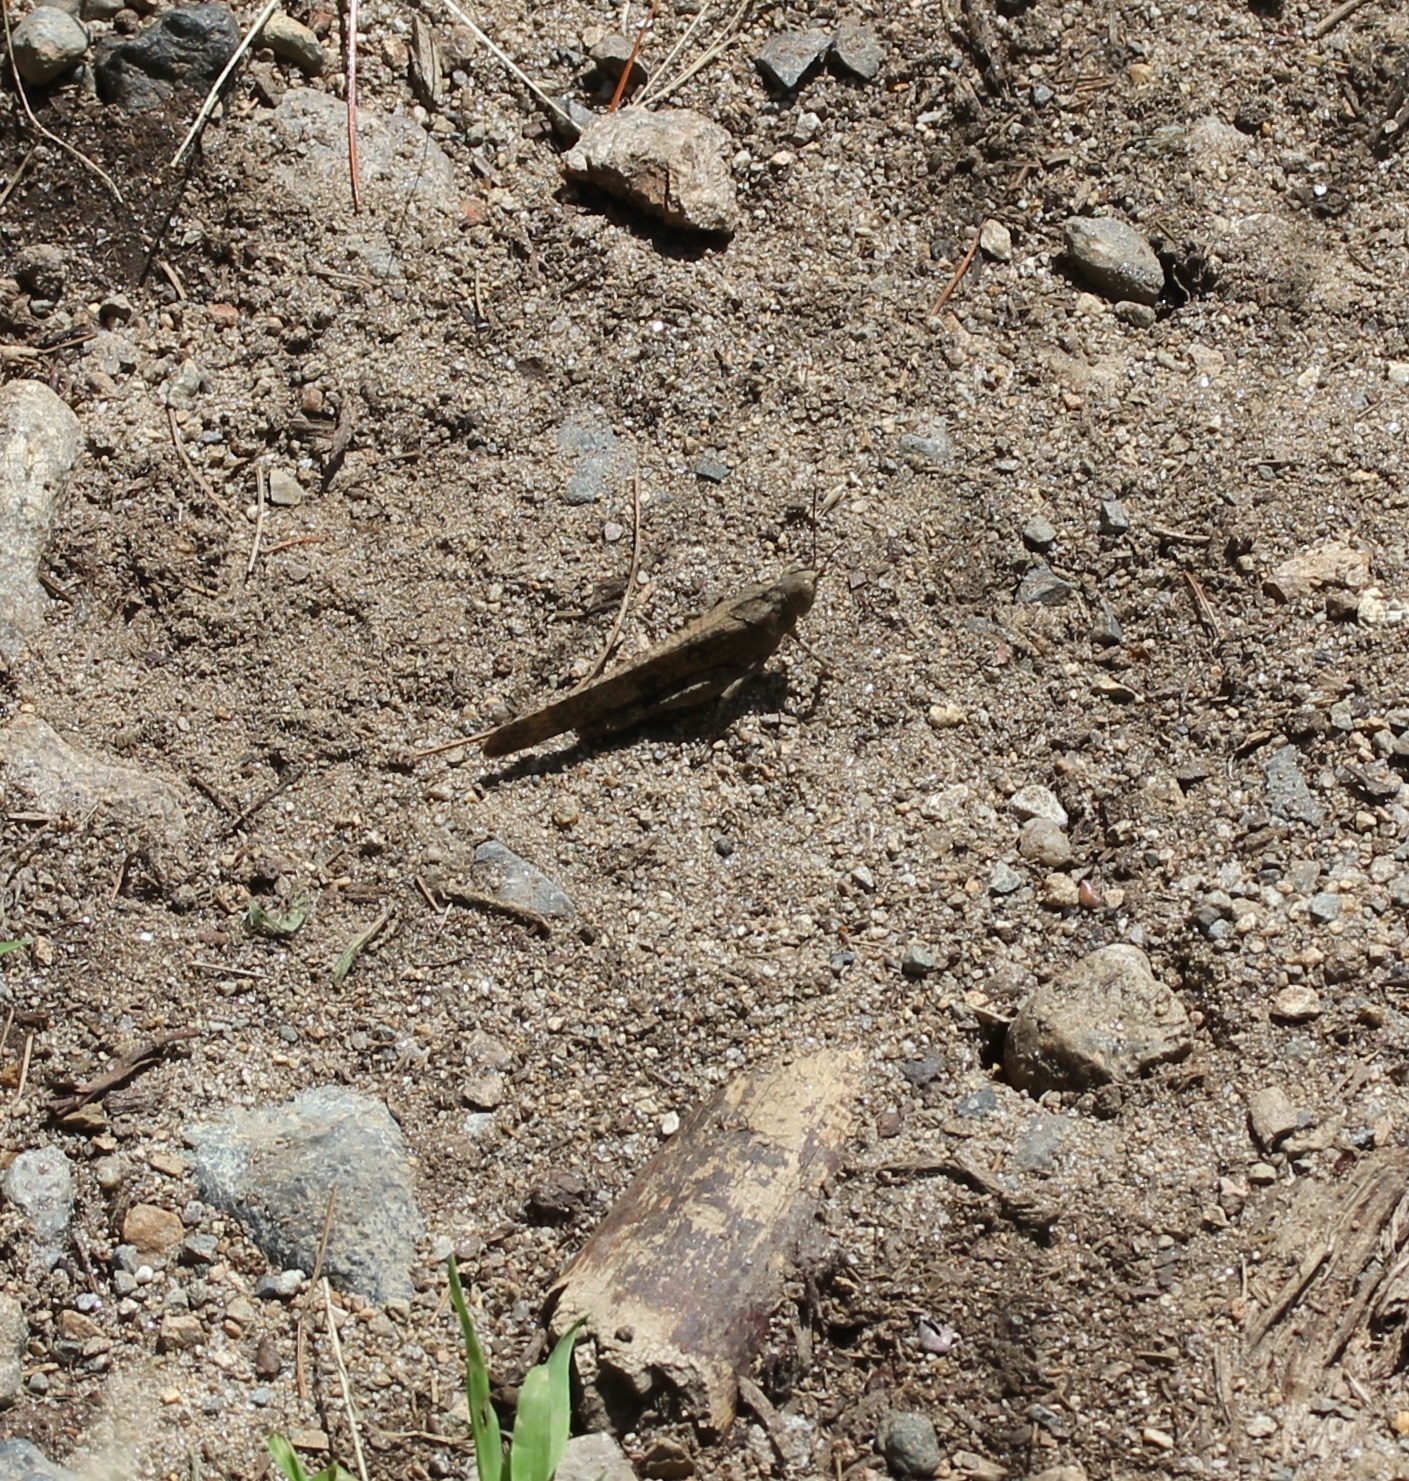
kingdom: Animalia
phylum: Arthropoda
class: Insecta
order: Orthoptera
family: Acrididae
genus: Dissosteira
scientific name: Dissosteira carolina
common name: Carolina grasshopper
